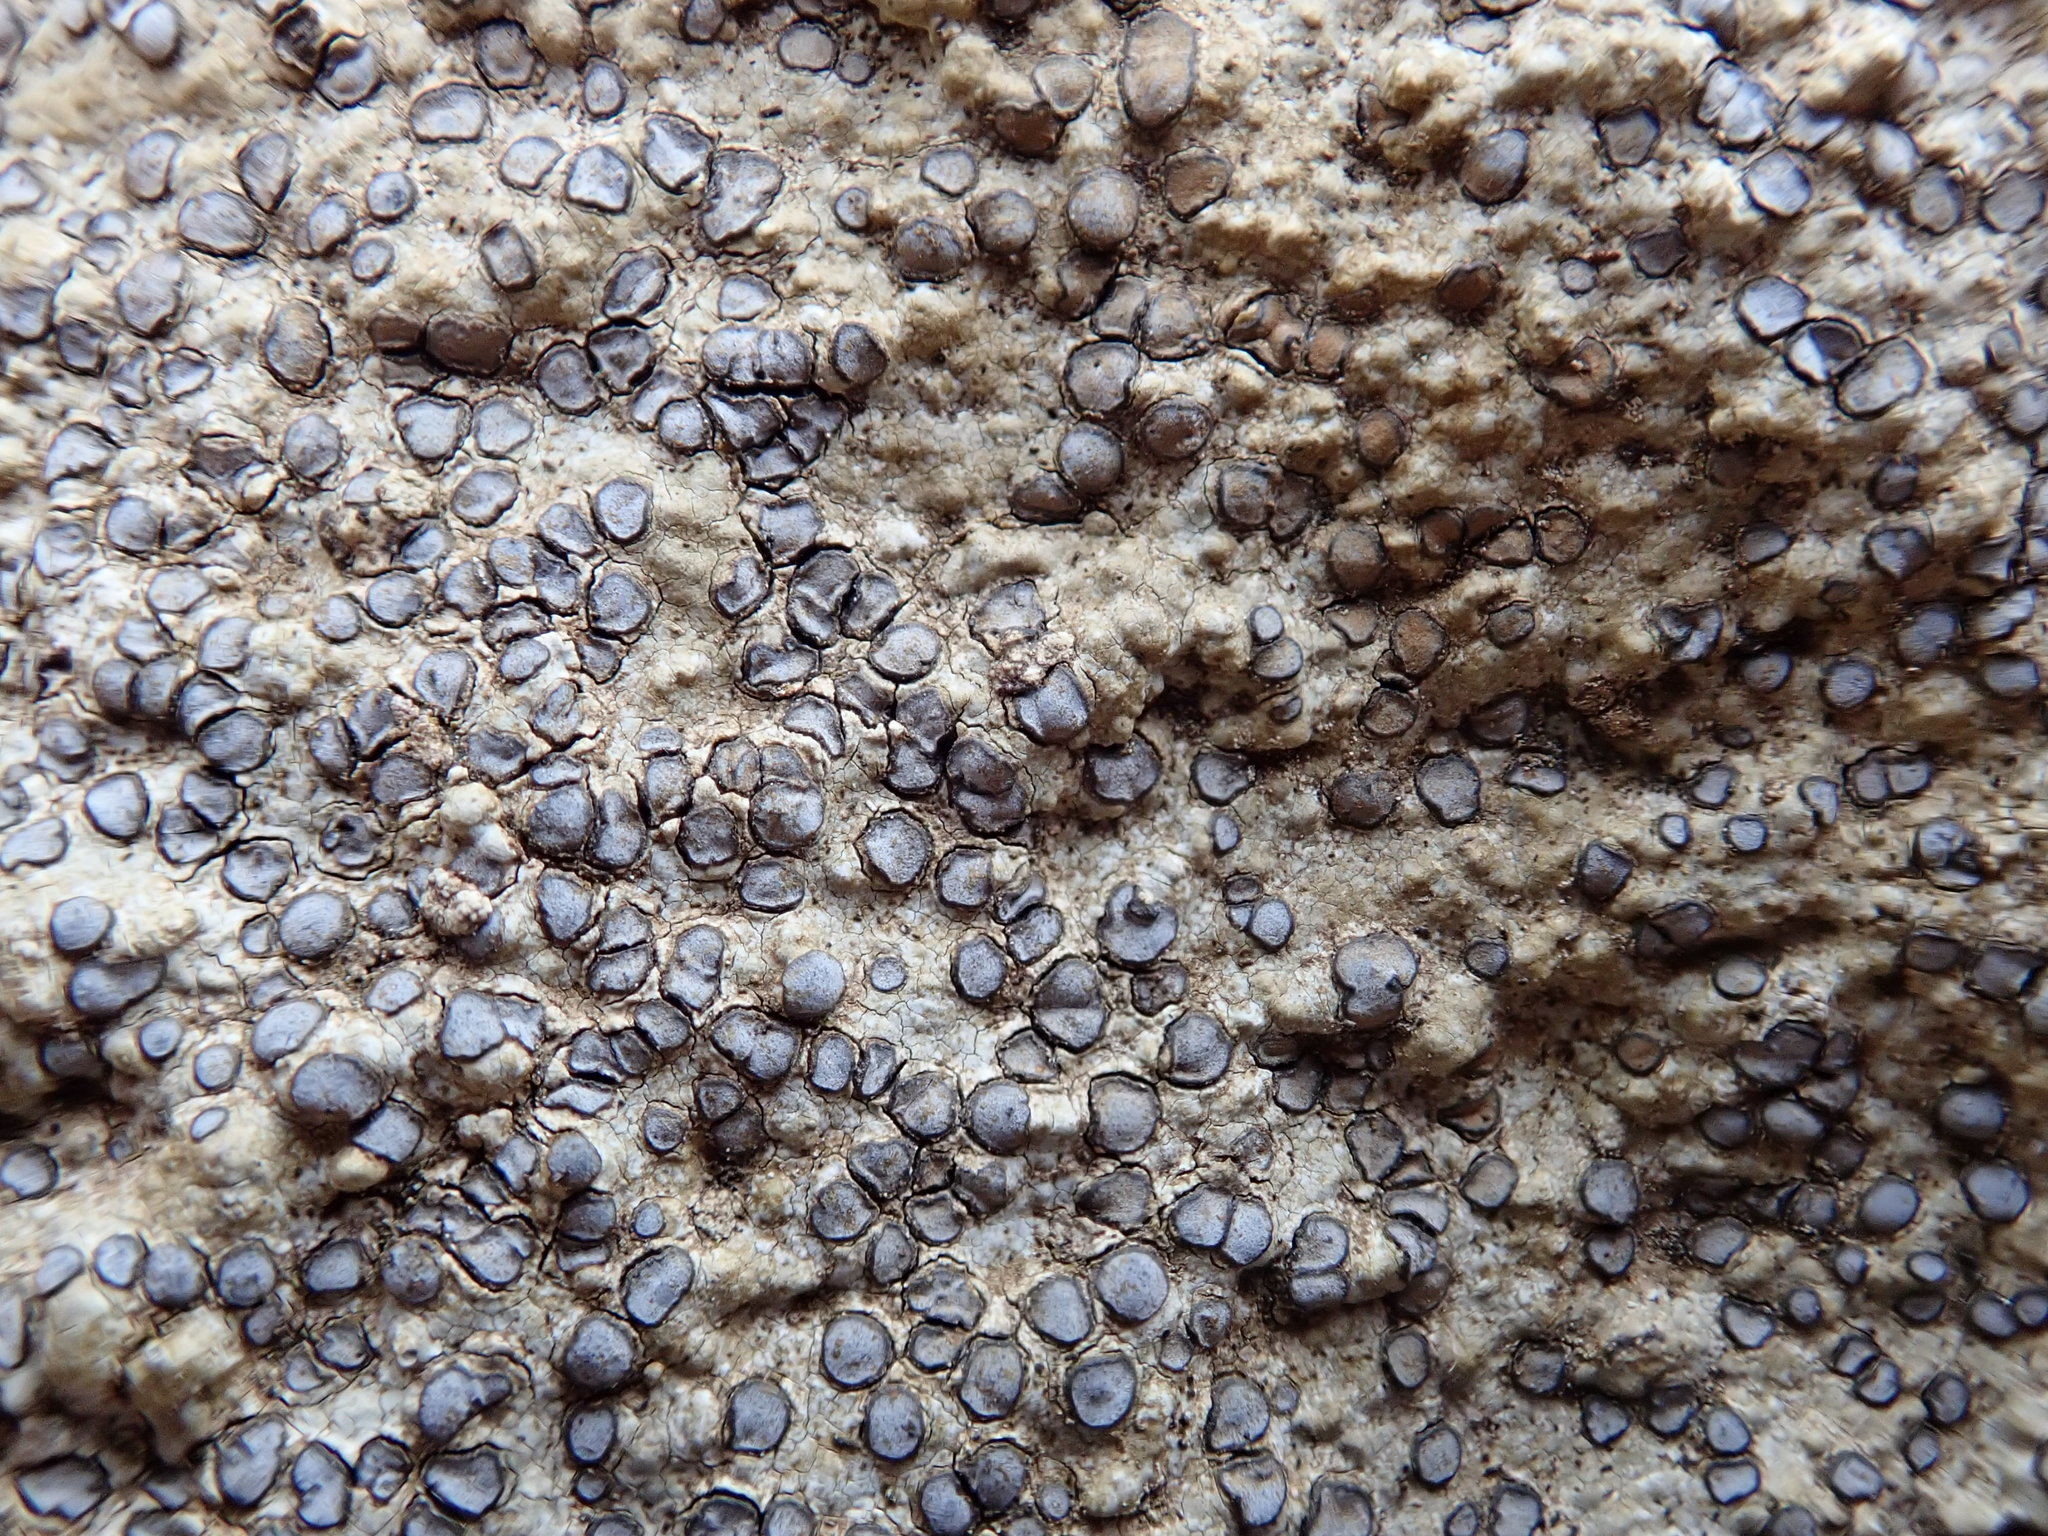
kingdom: Fungi
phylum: Ascomycota
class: Lecanoromycetes
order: Lecideales
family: Lecideaceae
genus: Porpidia
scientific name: Porpidia albocaerulescens
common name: Smokey-eyed boulder lichen
